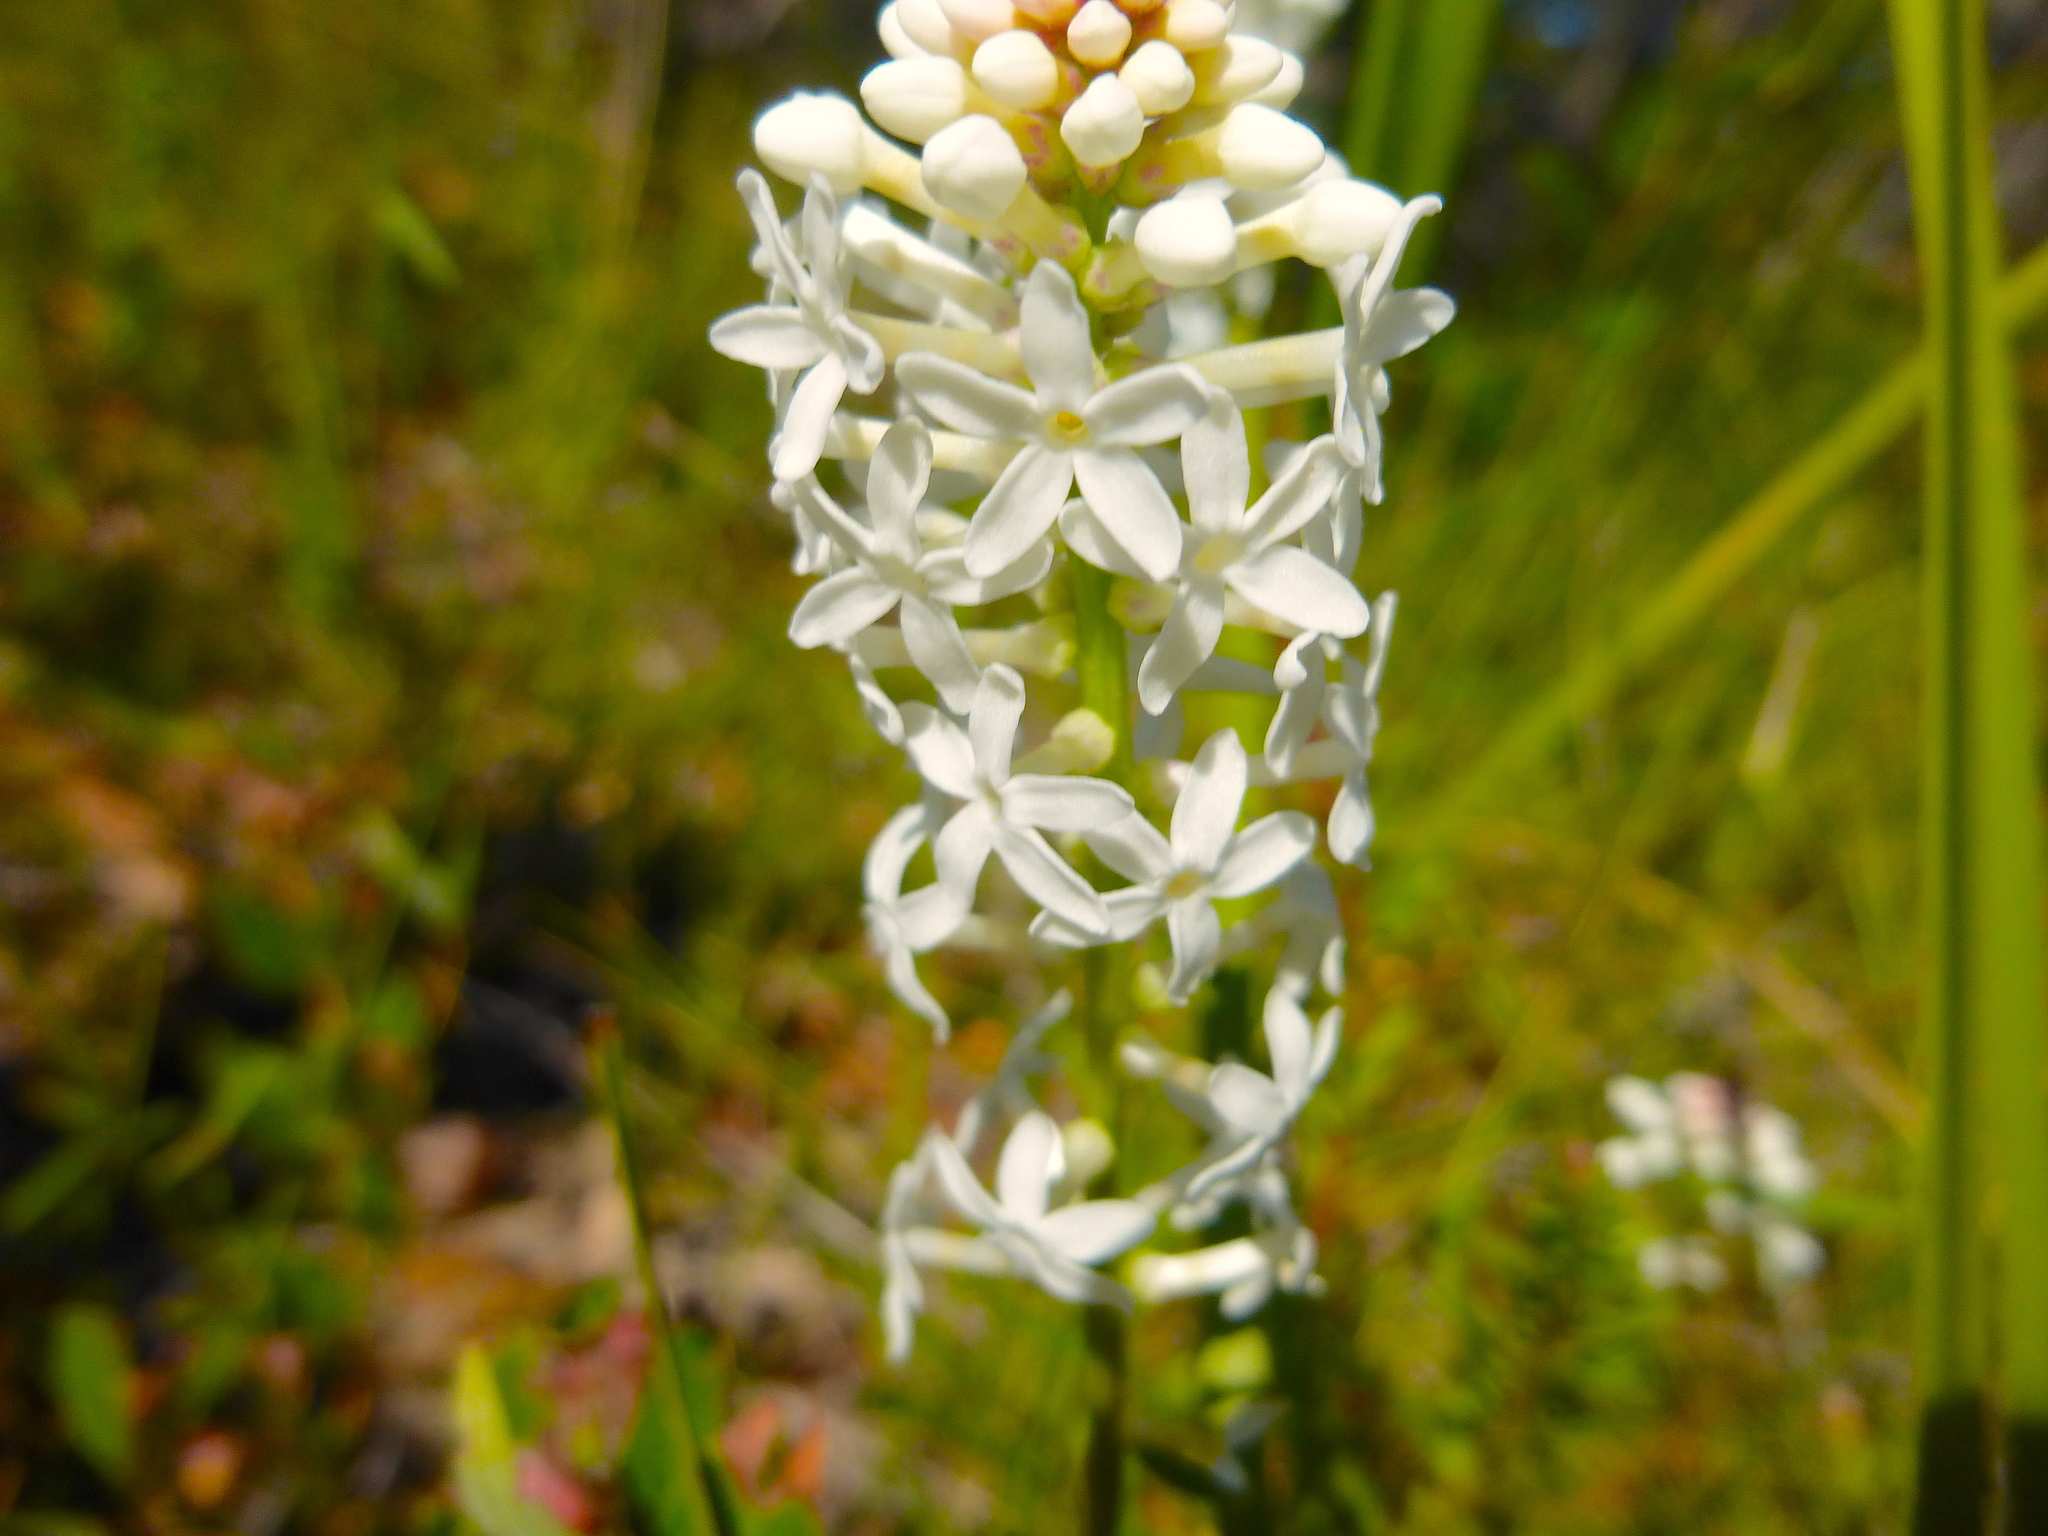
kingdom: Plantae
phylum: Tracheophyta
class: Magnoliopsida
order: Celastrales
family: Celastraceae
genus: Stackhousia
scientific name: Stackhousia monogyna
